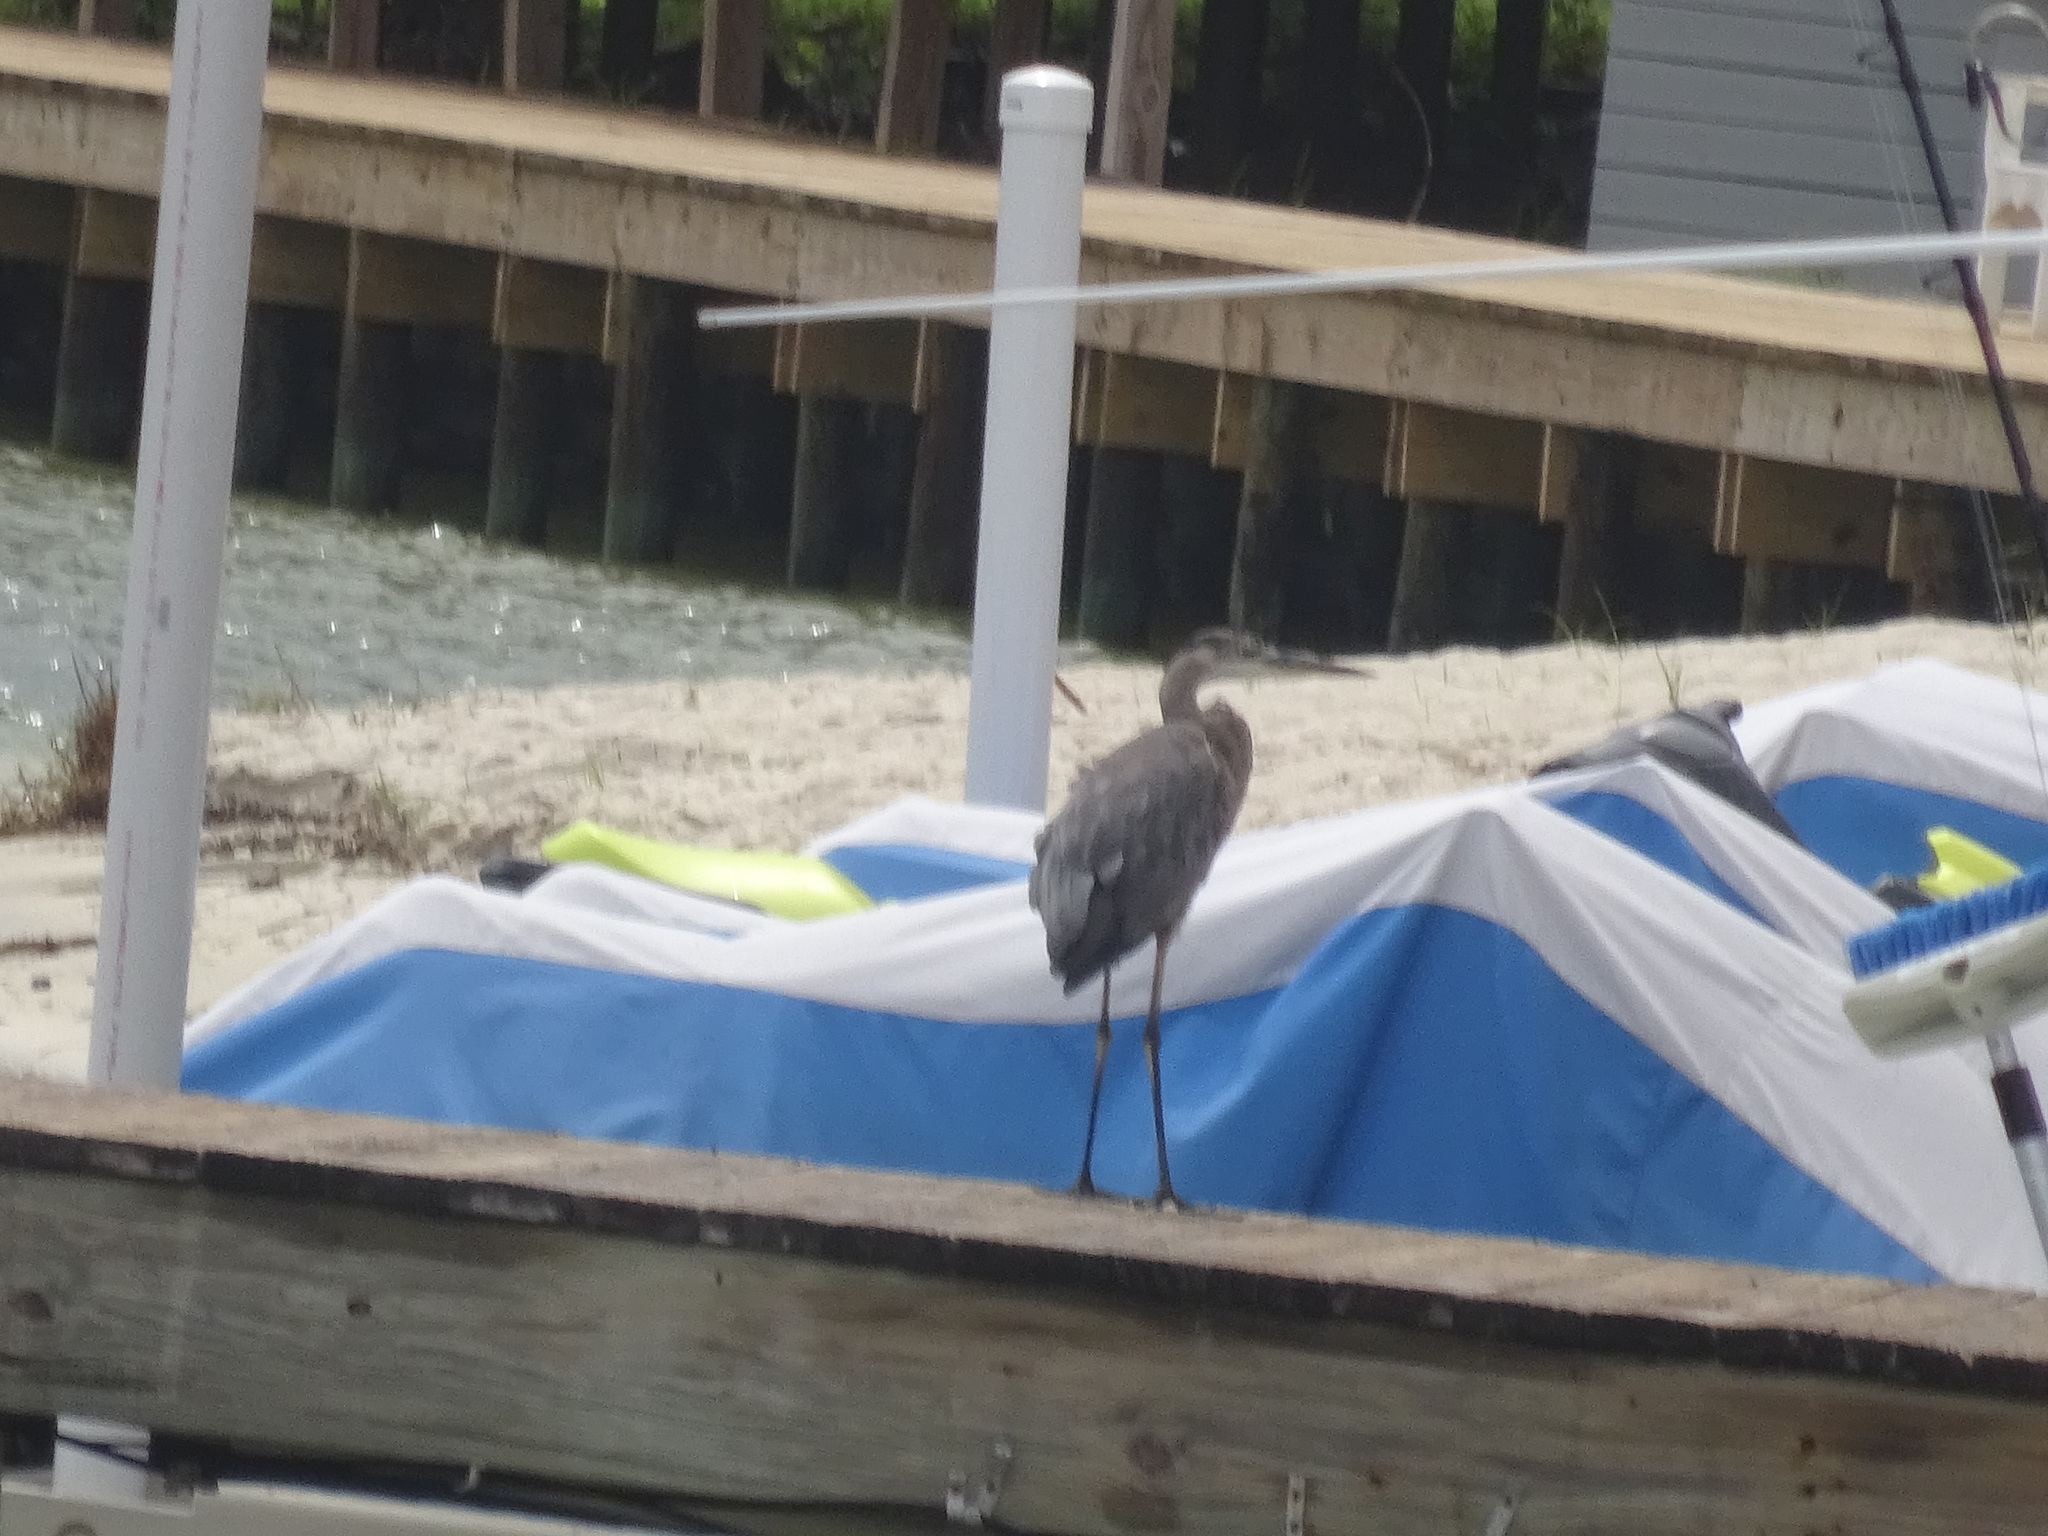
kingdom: Animalia
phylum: Chordata
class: Aves
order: Pelecaniformes
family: Ardeidae
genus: Ardea
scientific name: Ardea herodias
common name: Great blue heron
